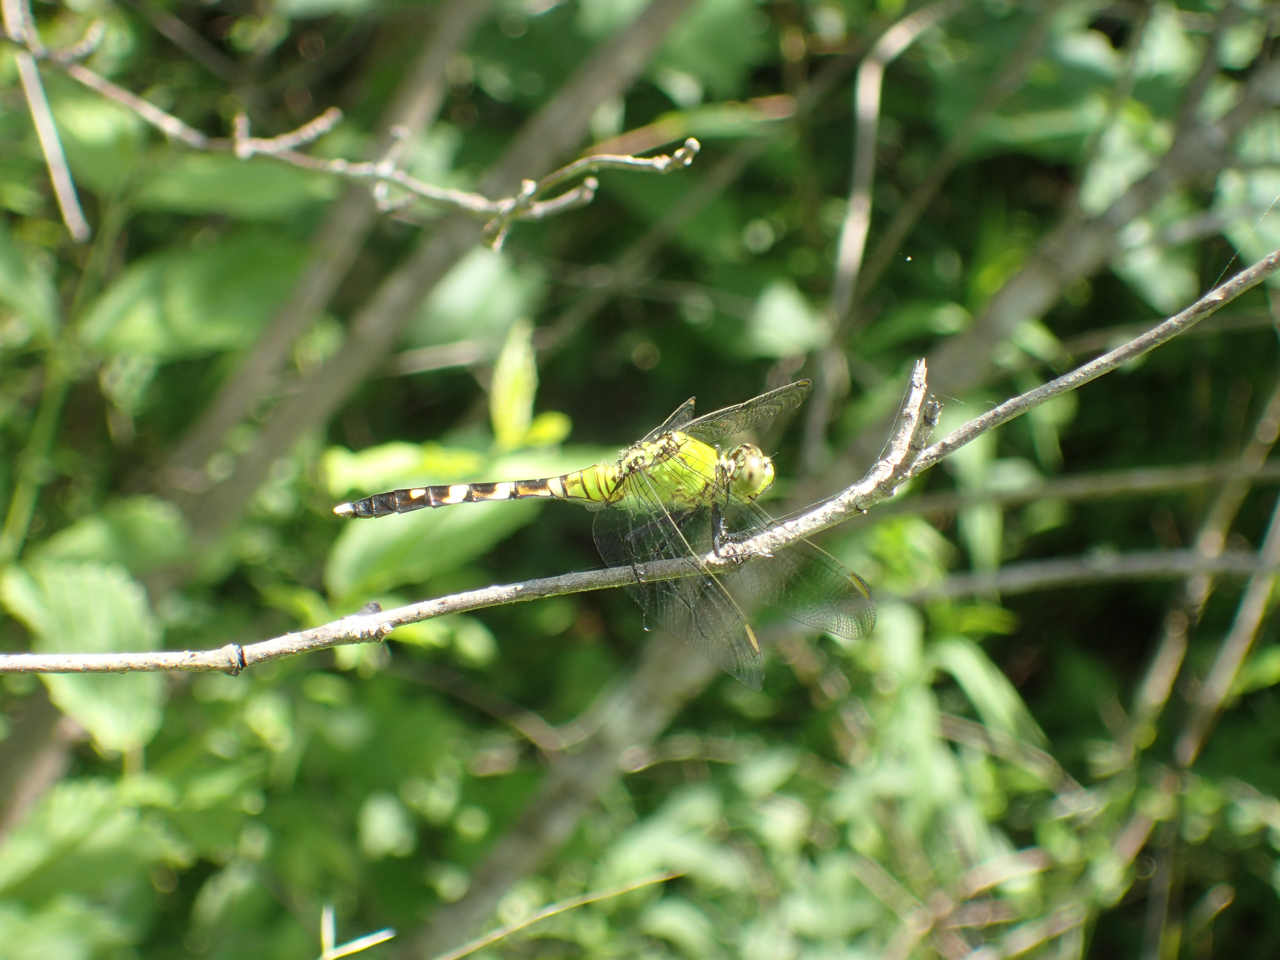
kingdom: Animalia
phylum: Arthropoda
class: Insecta
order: Odonata
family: Libellulidae
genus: Erythemis
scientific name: Erythemis simplicicollis
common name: Eastern pondhawk
